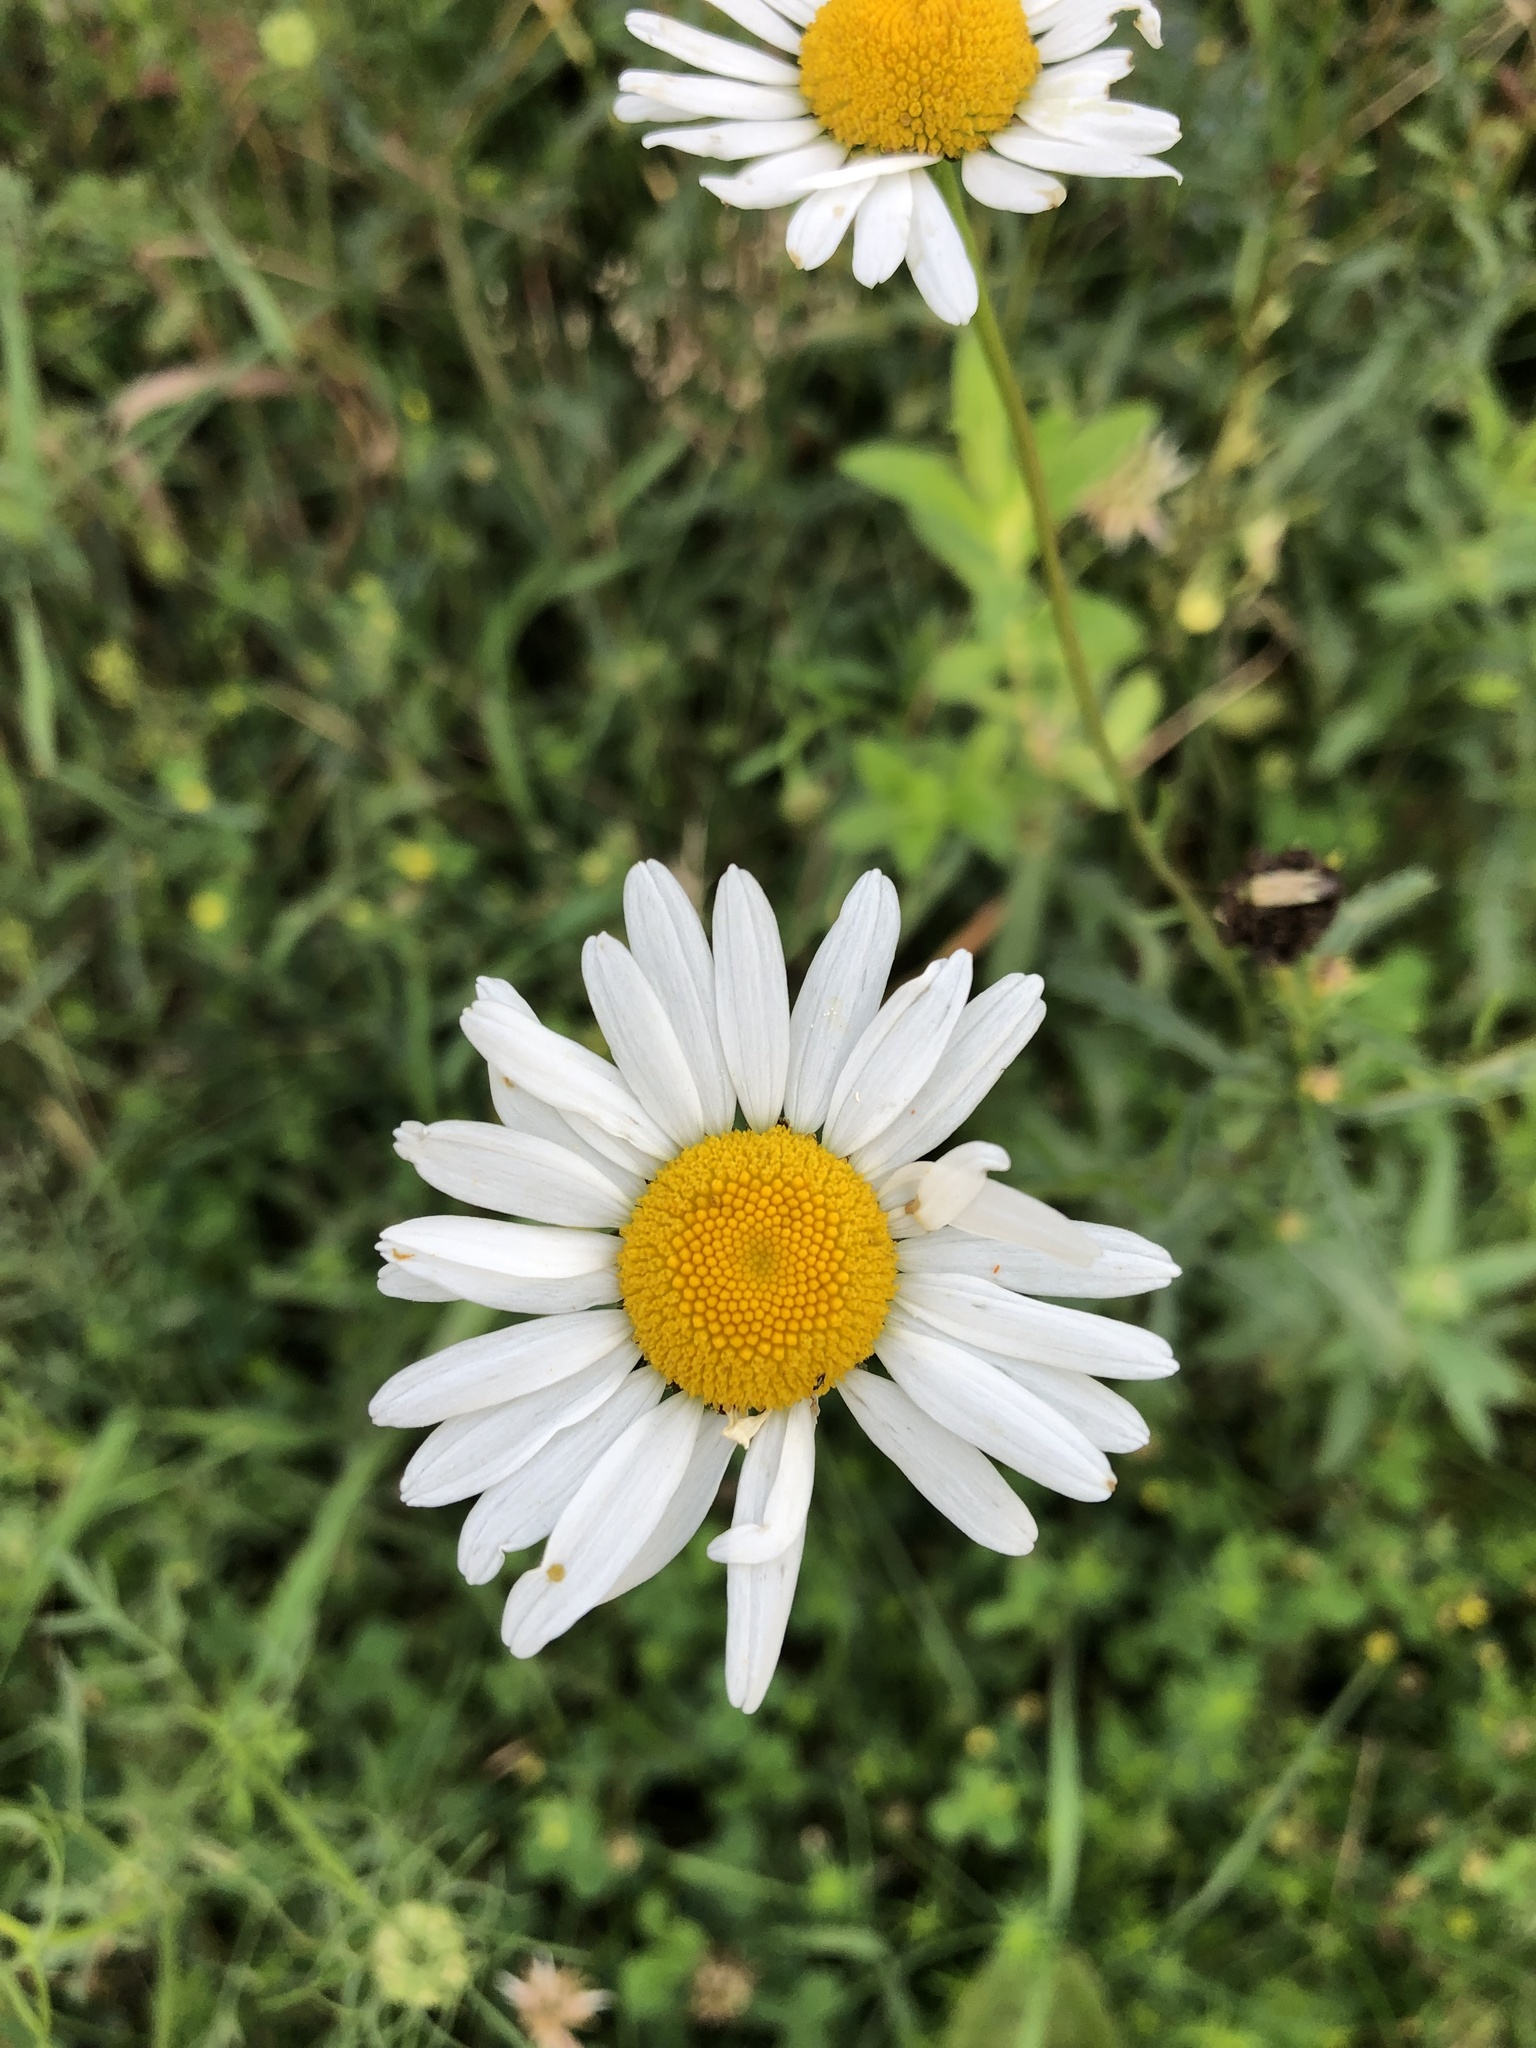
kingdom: Plantae
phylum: Tracheophyta
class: Magnoliopsida
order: Asterales
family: Asteraceae
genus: Leucanthemum
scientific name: Leucanthemum vulgare
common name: Oxeye daisy
